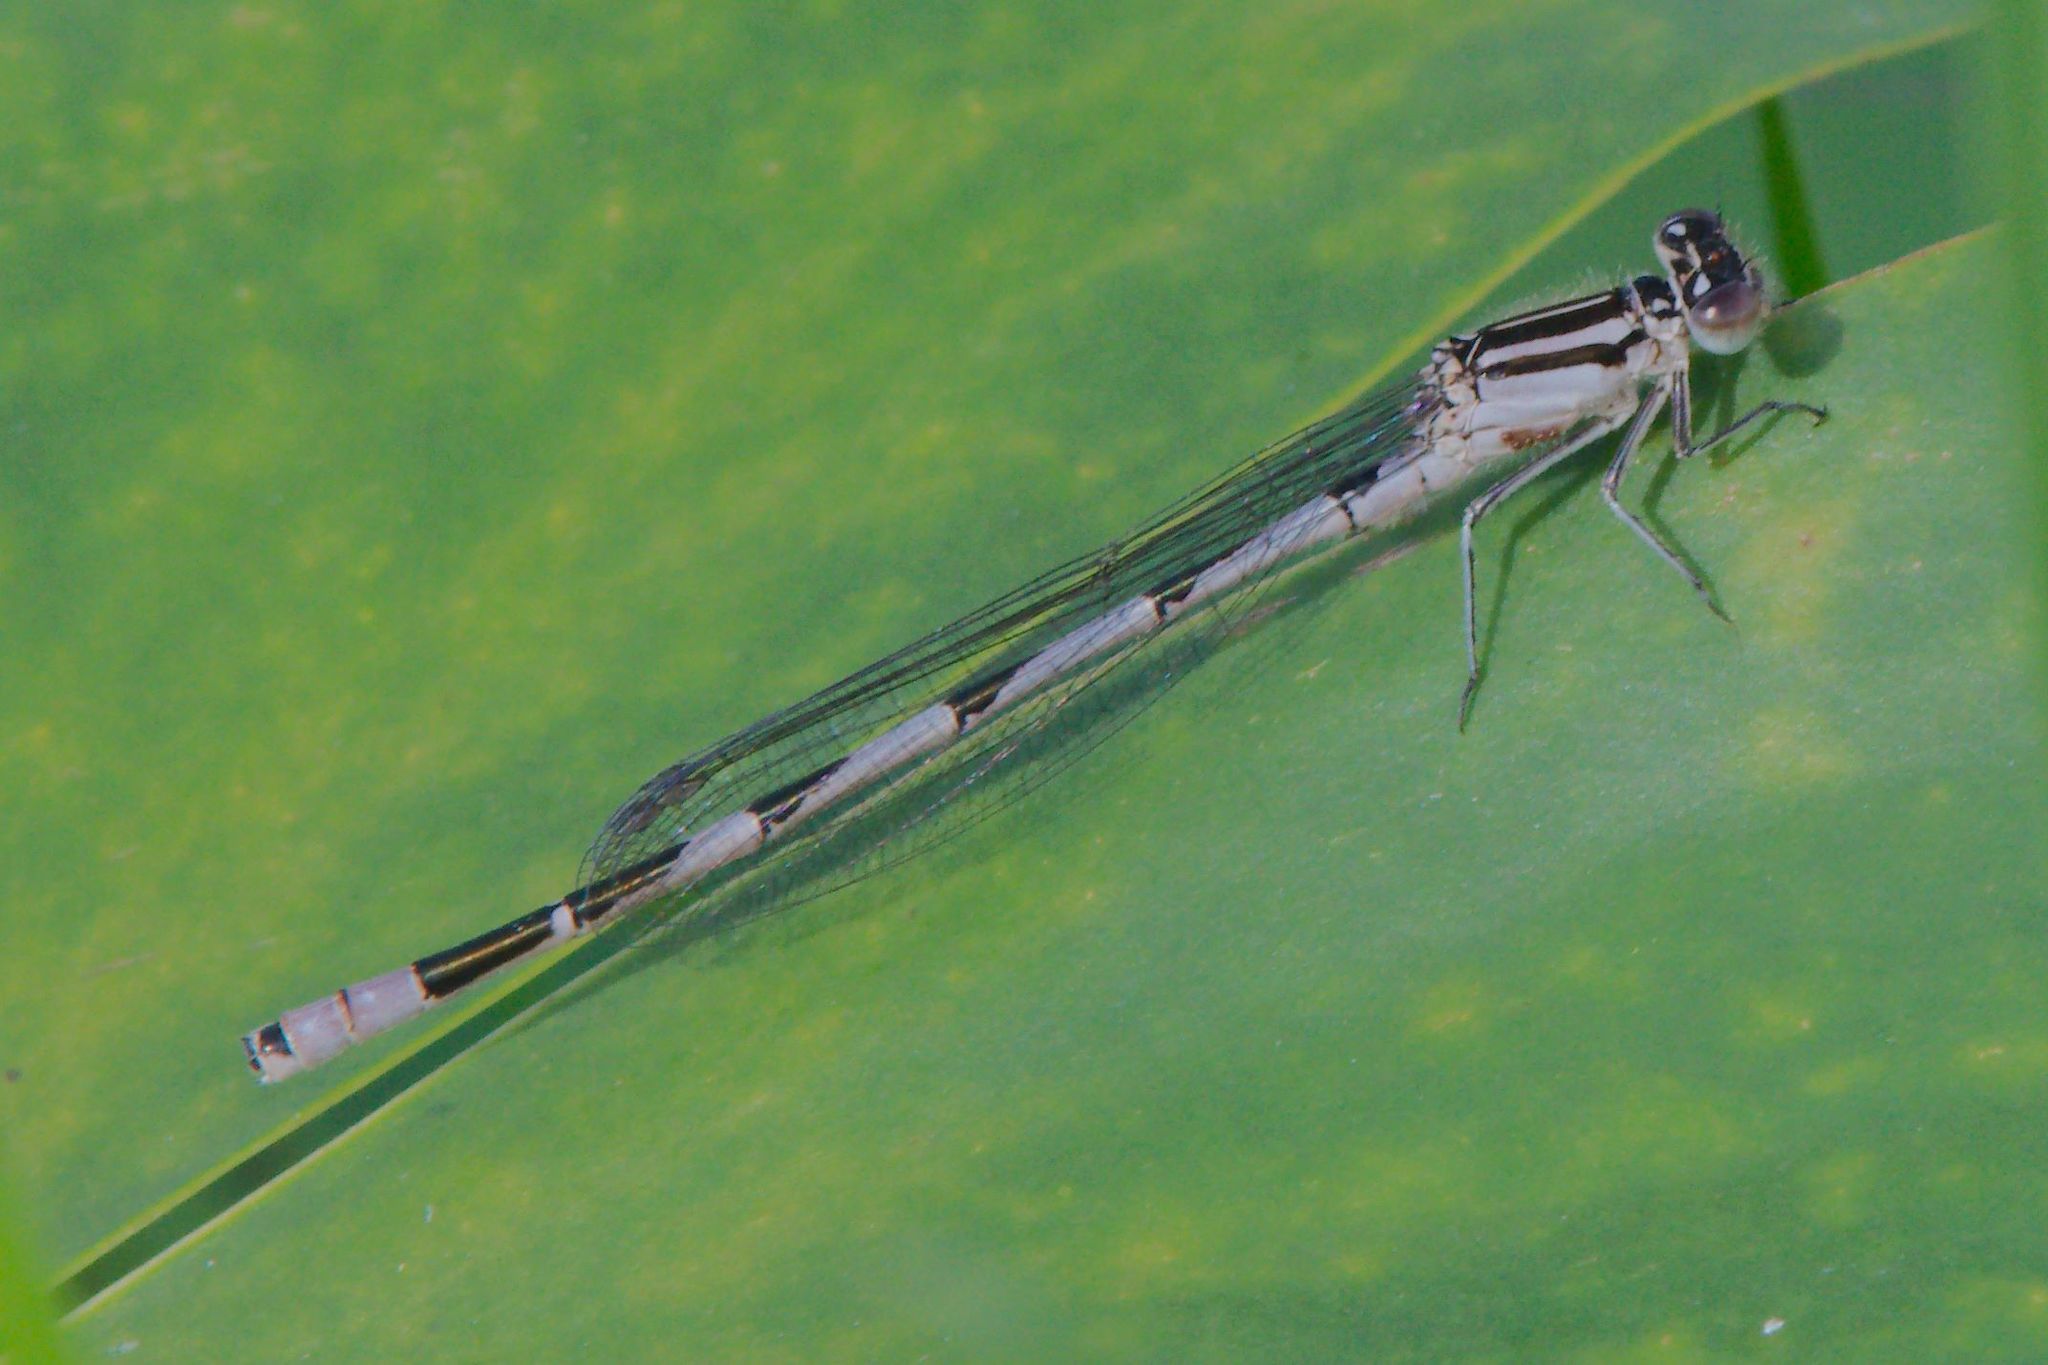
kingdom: Animalia
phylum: Arthropoda
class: Insecta
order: Odonata
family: Coenagrionidae
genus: Enallagma
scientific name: Enallagma durum
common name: Big bluet
